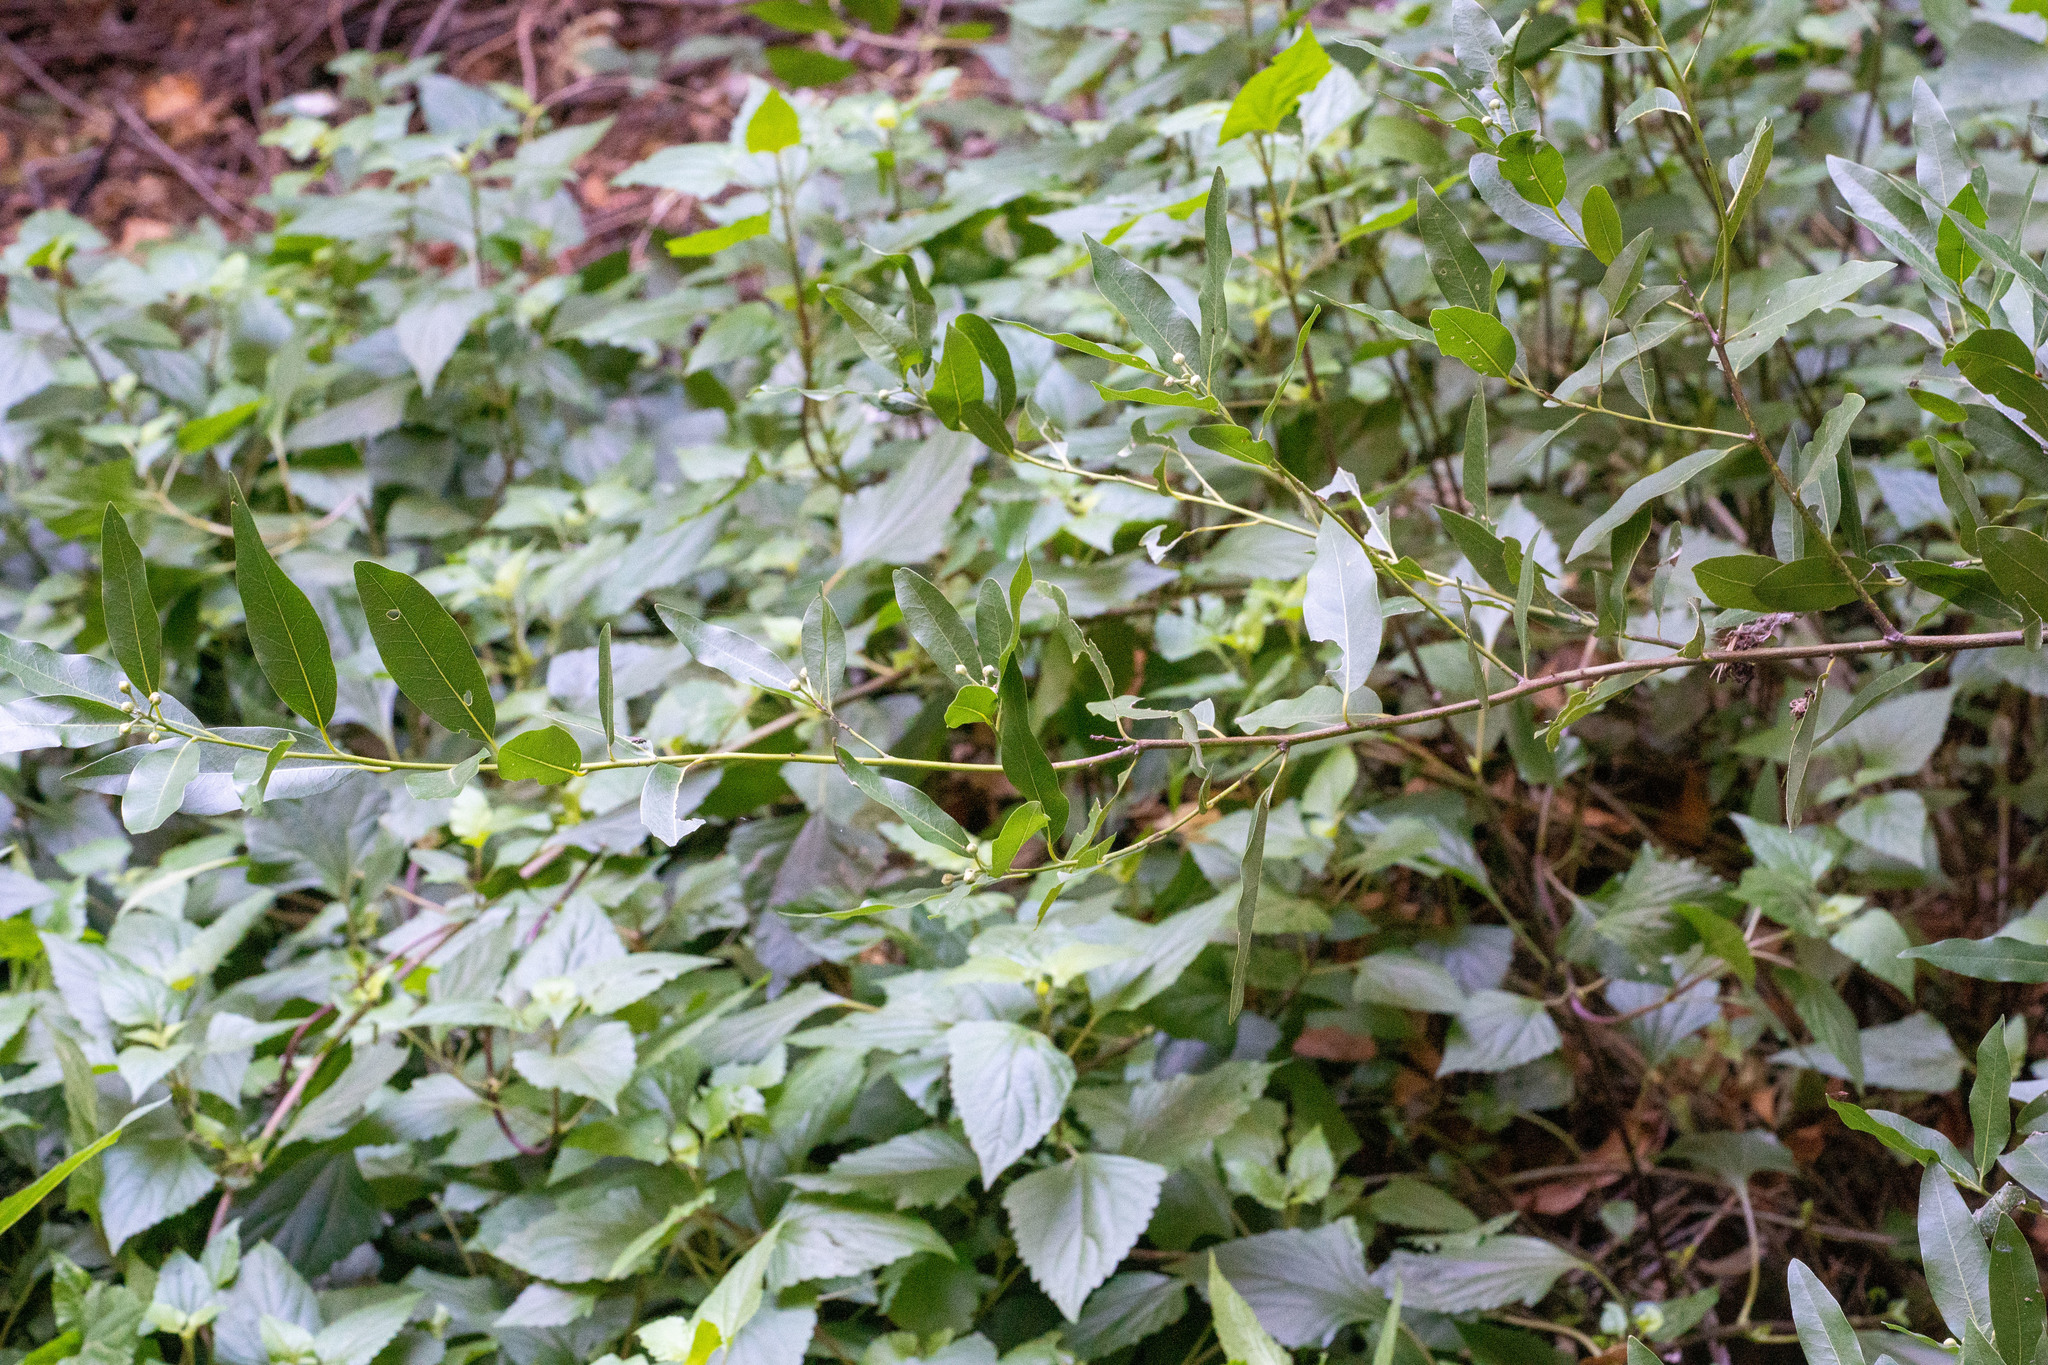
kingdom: Plantae
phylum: Tracheophyta
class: Magnoliopsida
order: Laurales
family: Lauraceae
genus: Umbellularia
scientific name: Umbellularia californica
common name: California bay
